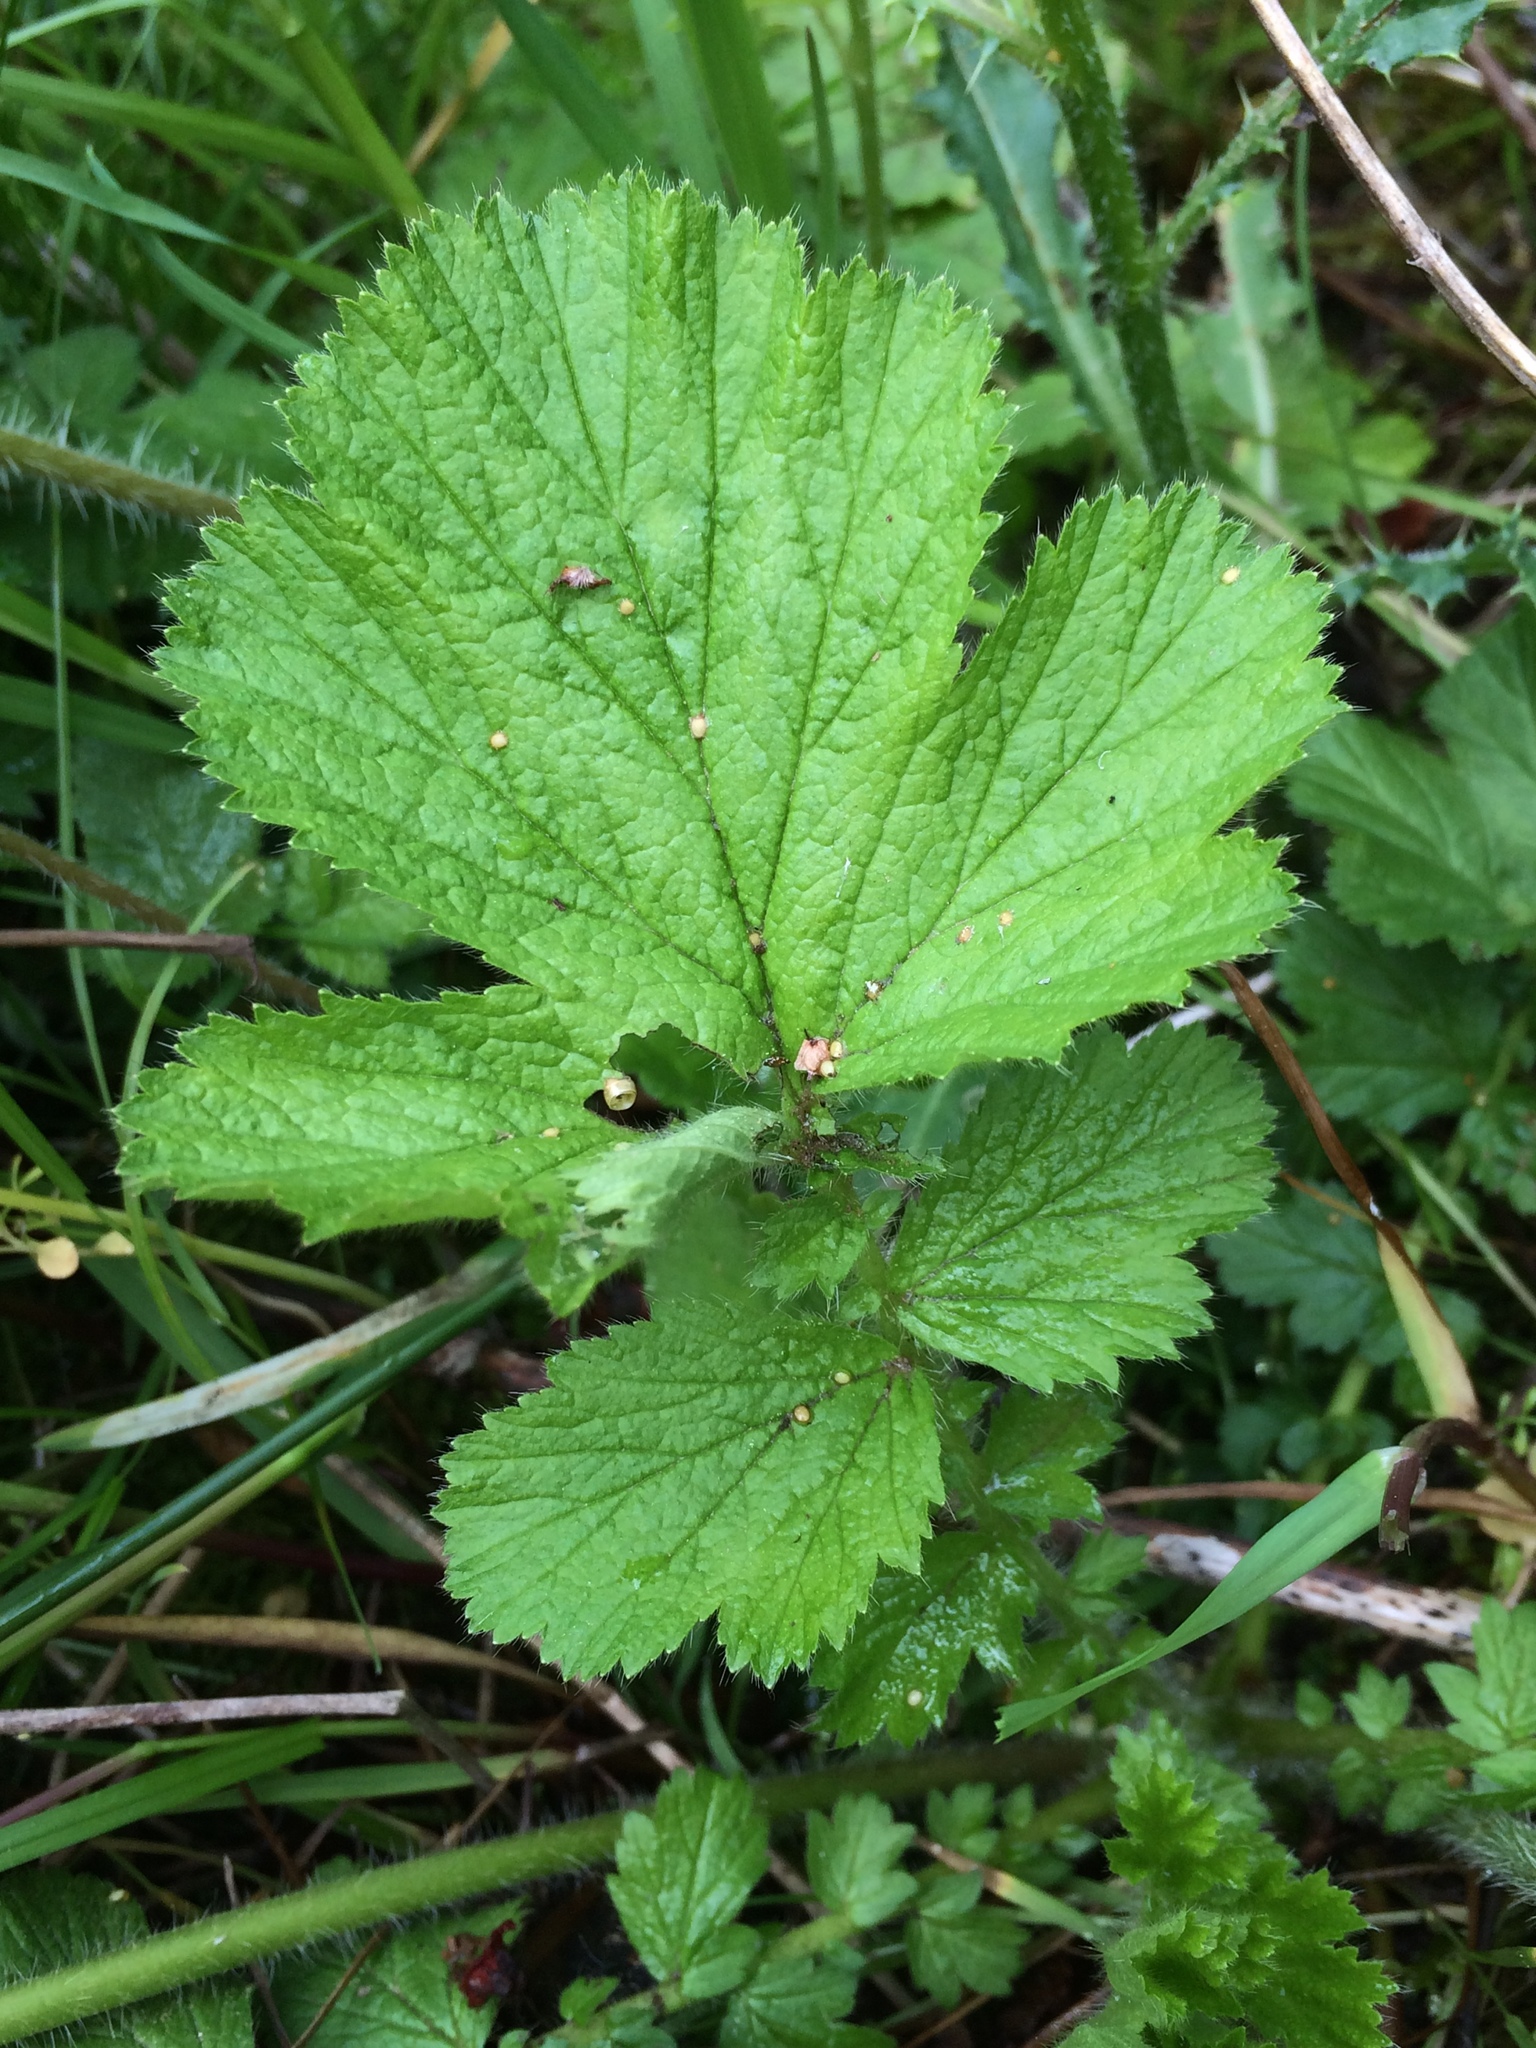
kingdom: Plantae
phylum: Tracheophyta
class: Magnoliopsida
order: Rosales
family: Rosaceae
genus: Geum
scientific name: Geum macrophyllum
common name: Large-leaved avens
